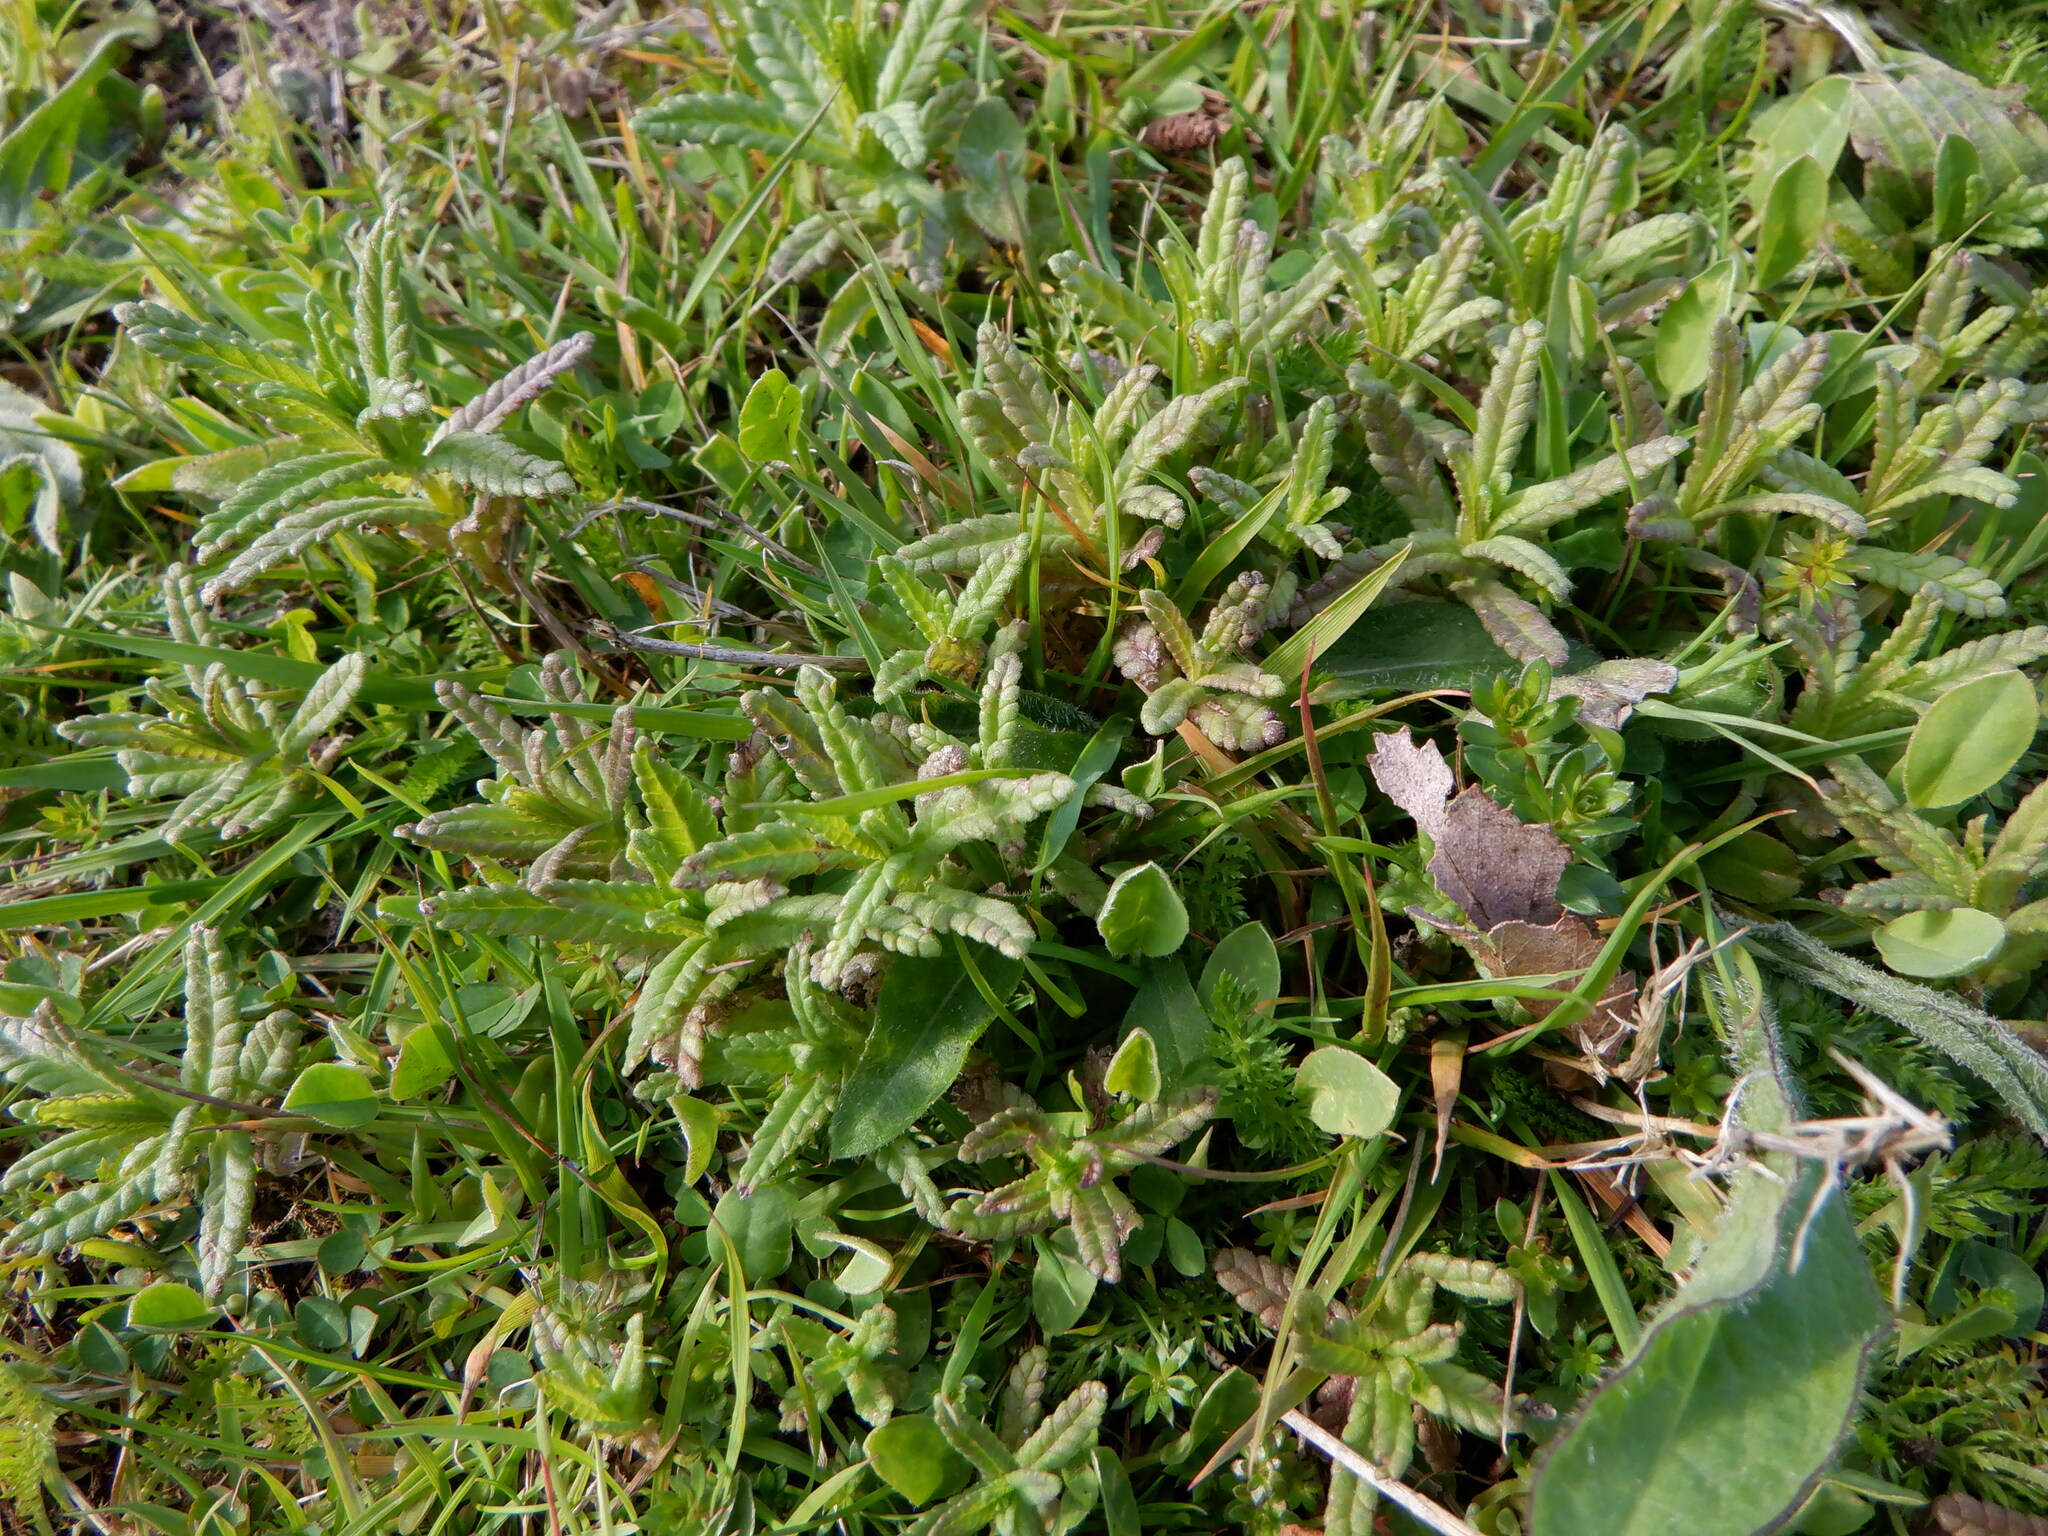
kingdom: Plantae
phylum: Tracheophyta
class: Magnoliopsida
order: Lamiales
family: Orobanchaceae
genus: Rhinanthus
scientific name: Rhinanthus minor
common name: Yellow-rattle
